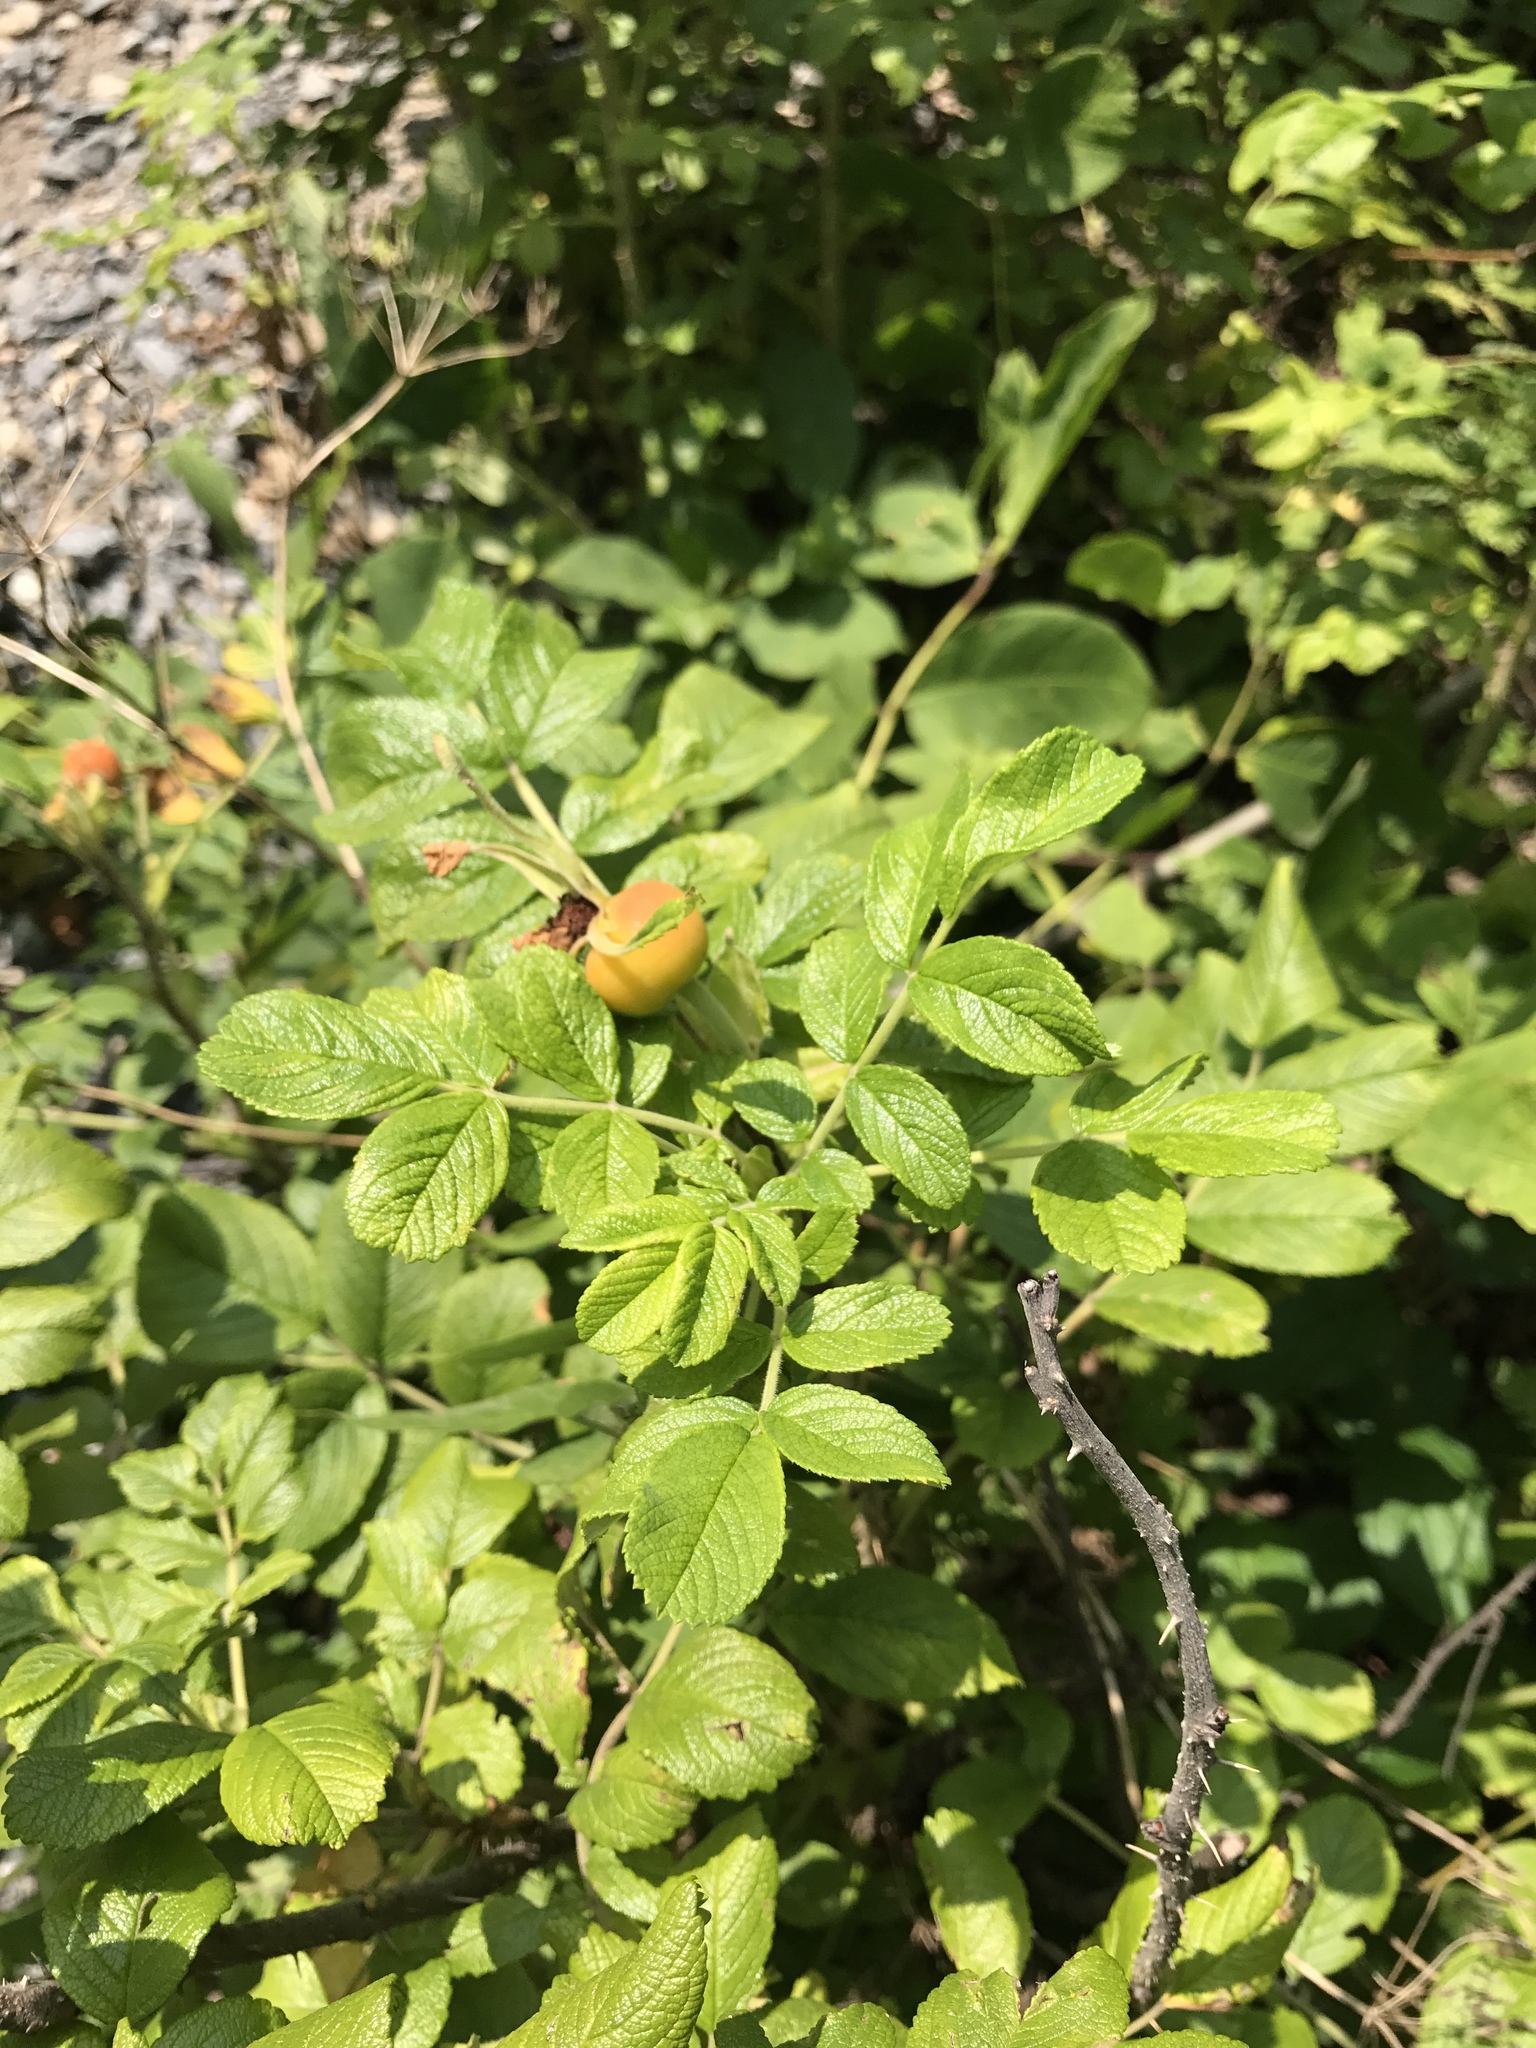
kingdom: Plantae
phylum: Tracheophyta
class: Magnoliopsida
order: Rosales
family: Rosaceae
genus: Rosa
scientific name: Rosa rugosa
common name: Japanese rose
